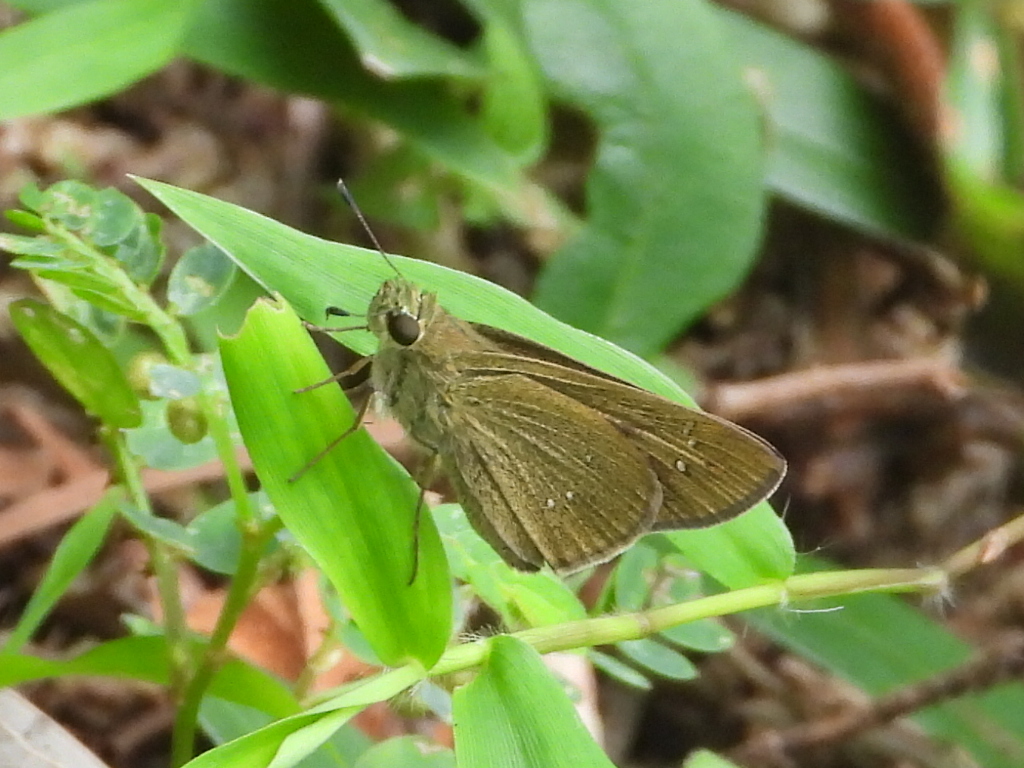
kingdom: Animalia
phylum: Arthropoda
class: Insecta
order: Lepidoptera
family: Hesperiidae
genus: Borbo
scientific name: Borbo cinnara
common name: Formosan swift
